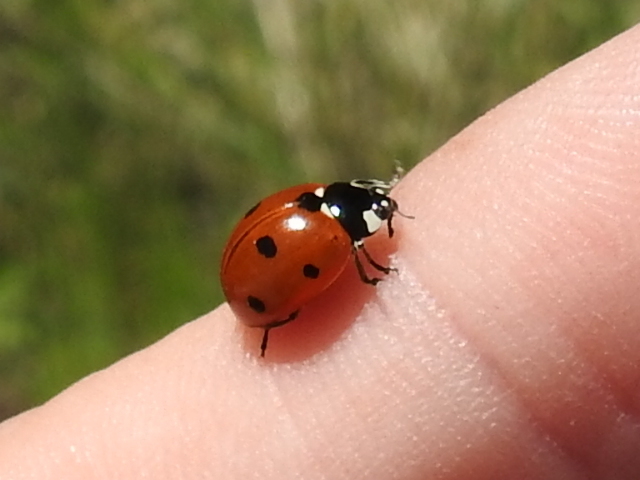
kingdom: Animalia
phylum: Arthropoda
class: Insecta
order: Coleoptera
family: Coccinellidae
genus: Coccinella
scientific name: Coccinella septempunctata
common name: Sevenspotted lady beetle
